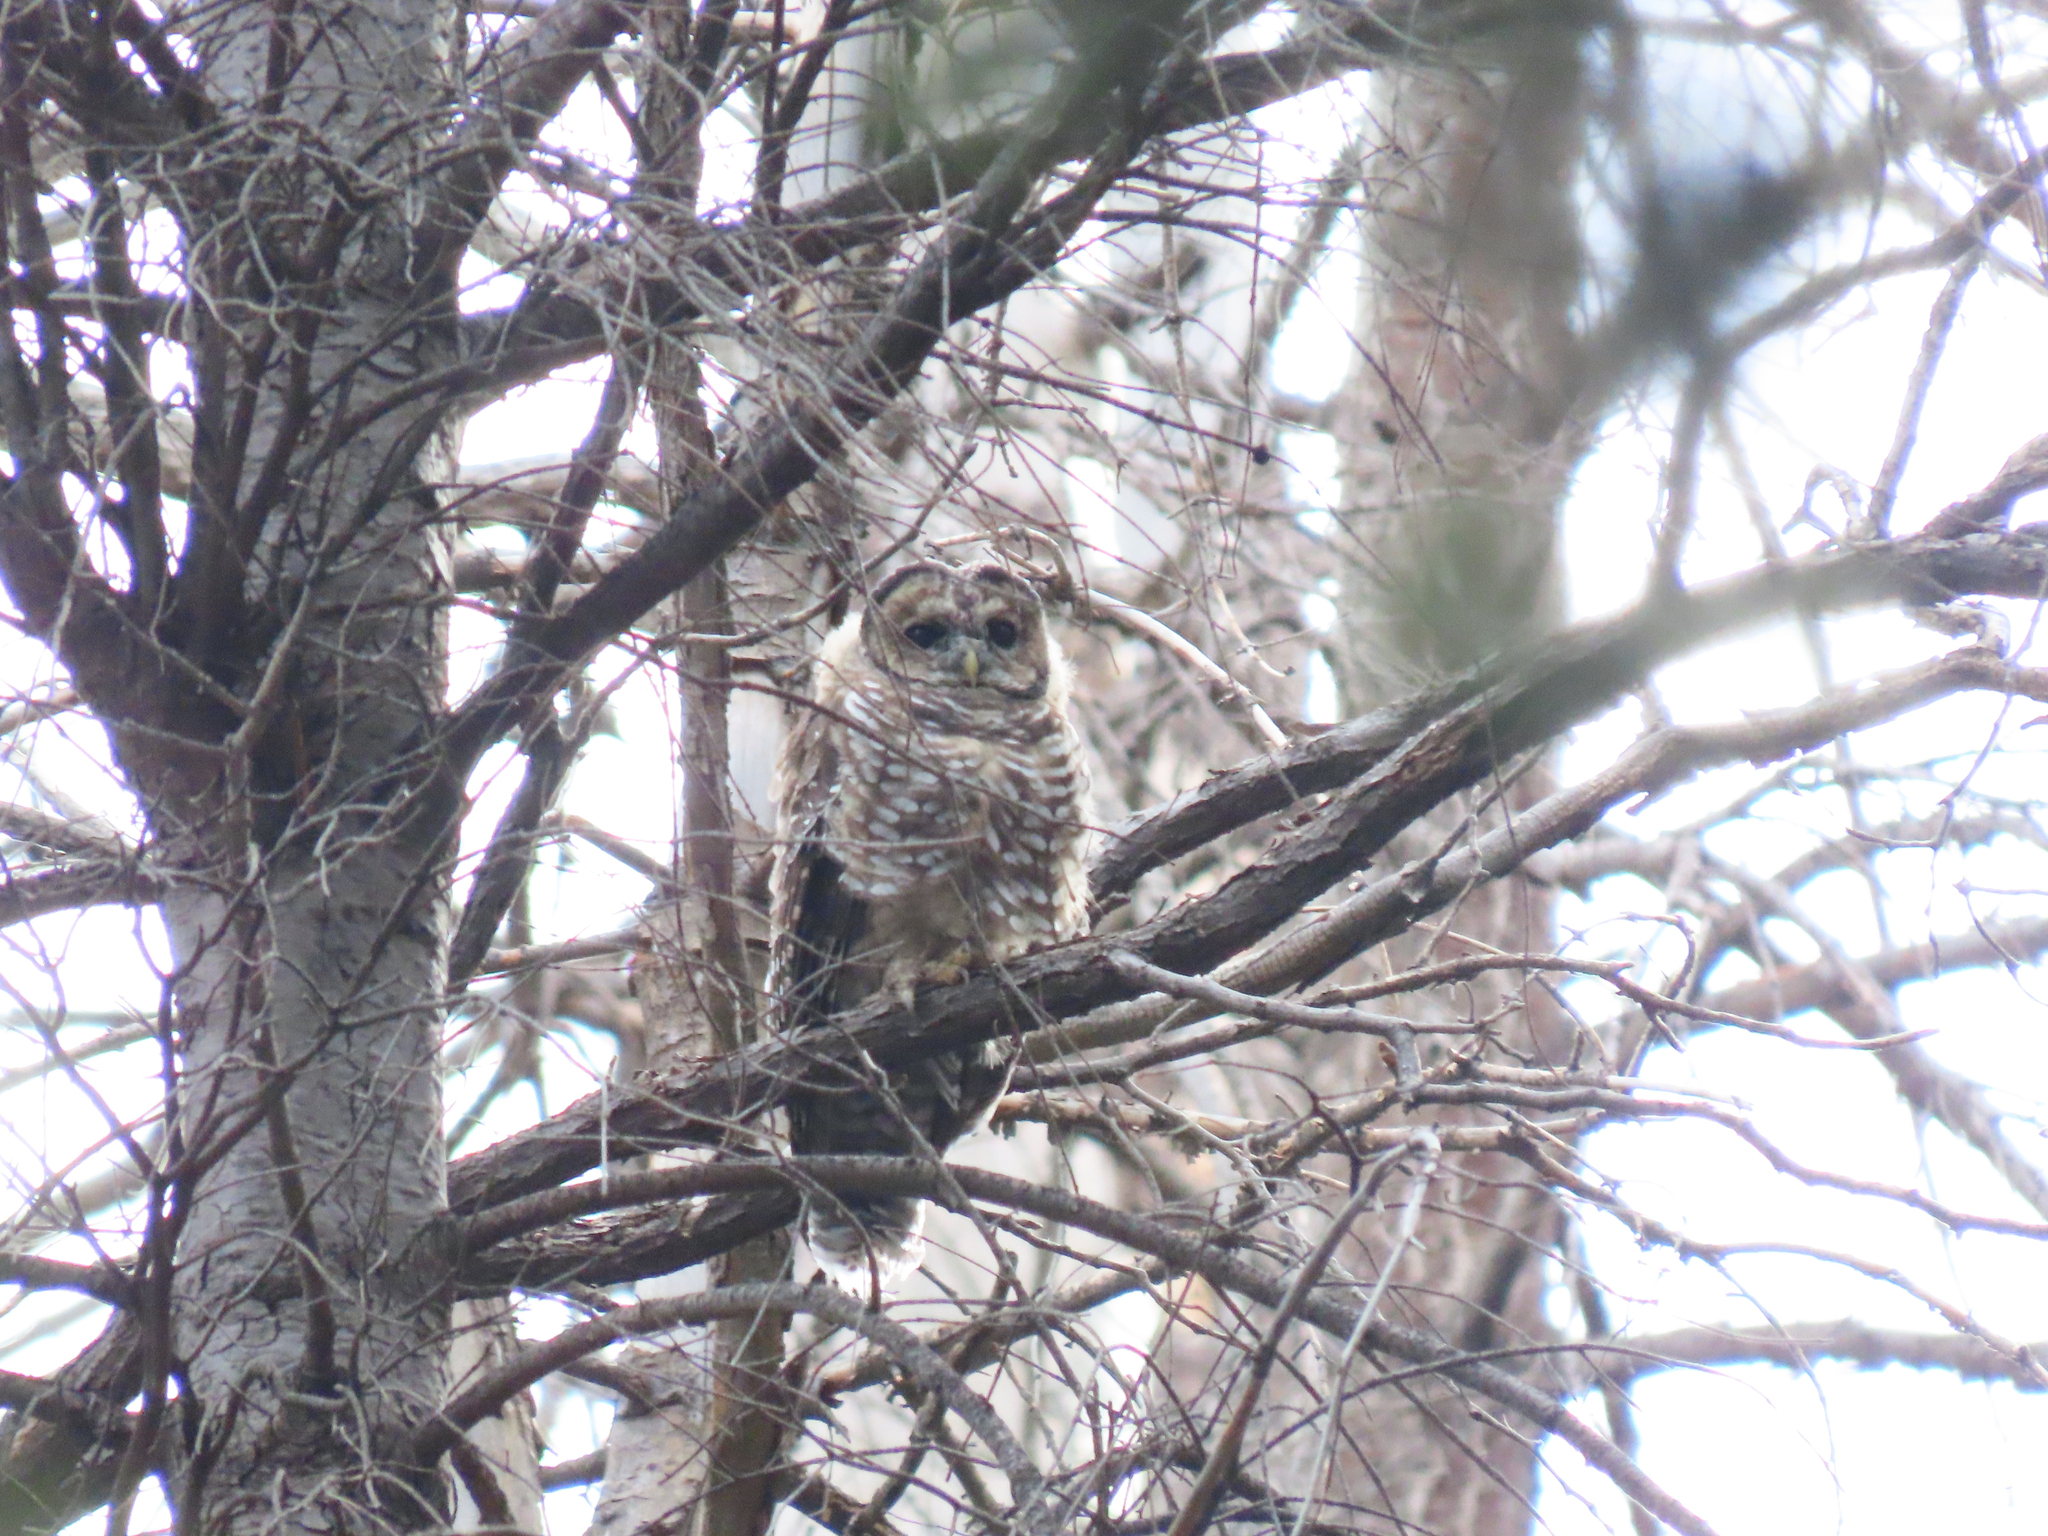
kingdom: Animalia
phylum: Chordata
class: Aves
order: Strigiformes
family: Strigidae
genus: Strix
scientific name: Strix occidentalis
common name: Spotted owl
